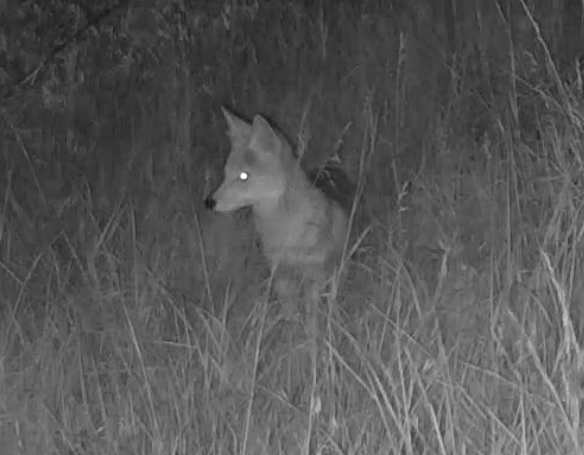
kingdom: Animalia
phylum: Chordata
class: Mammalia
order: Carnivora
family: Canidae
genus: Canis
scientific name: Canis latrans
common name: Coyote
